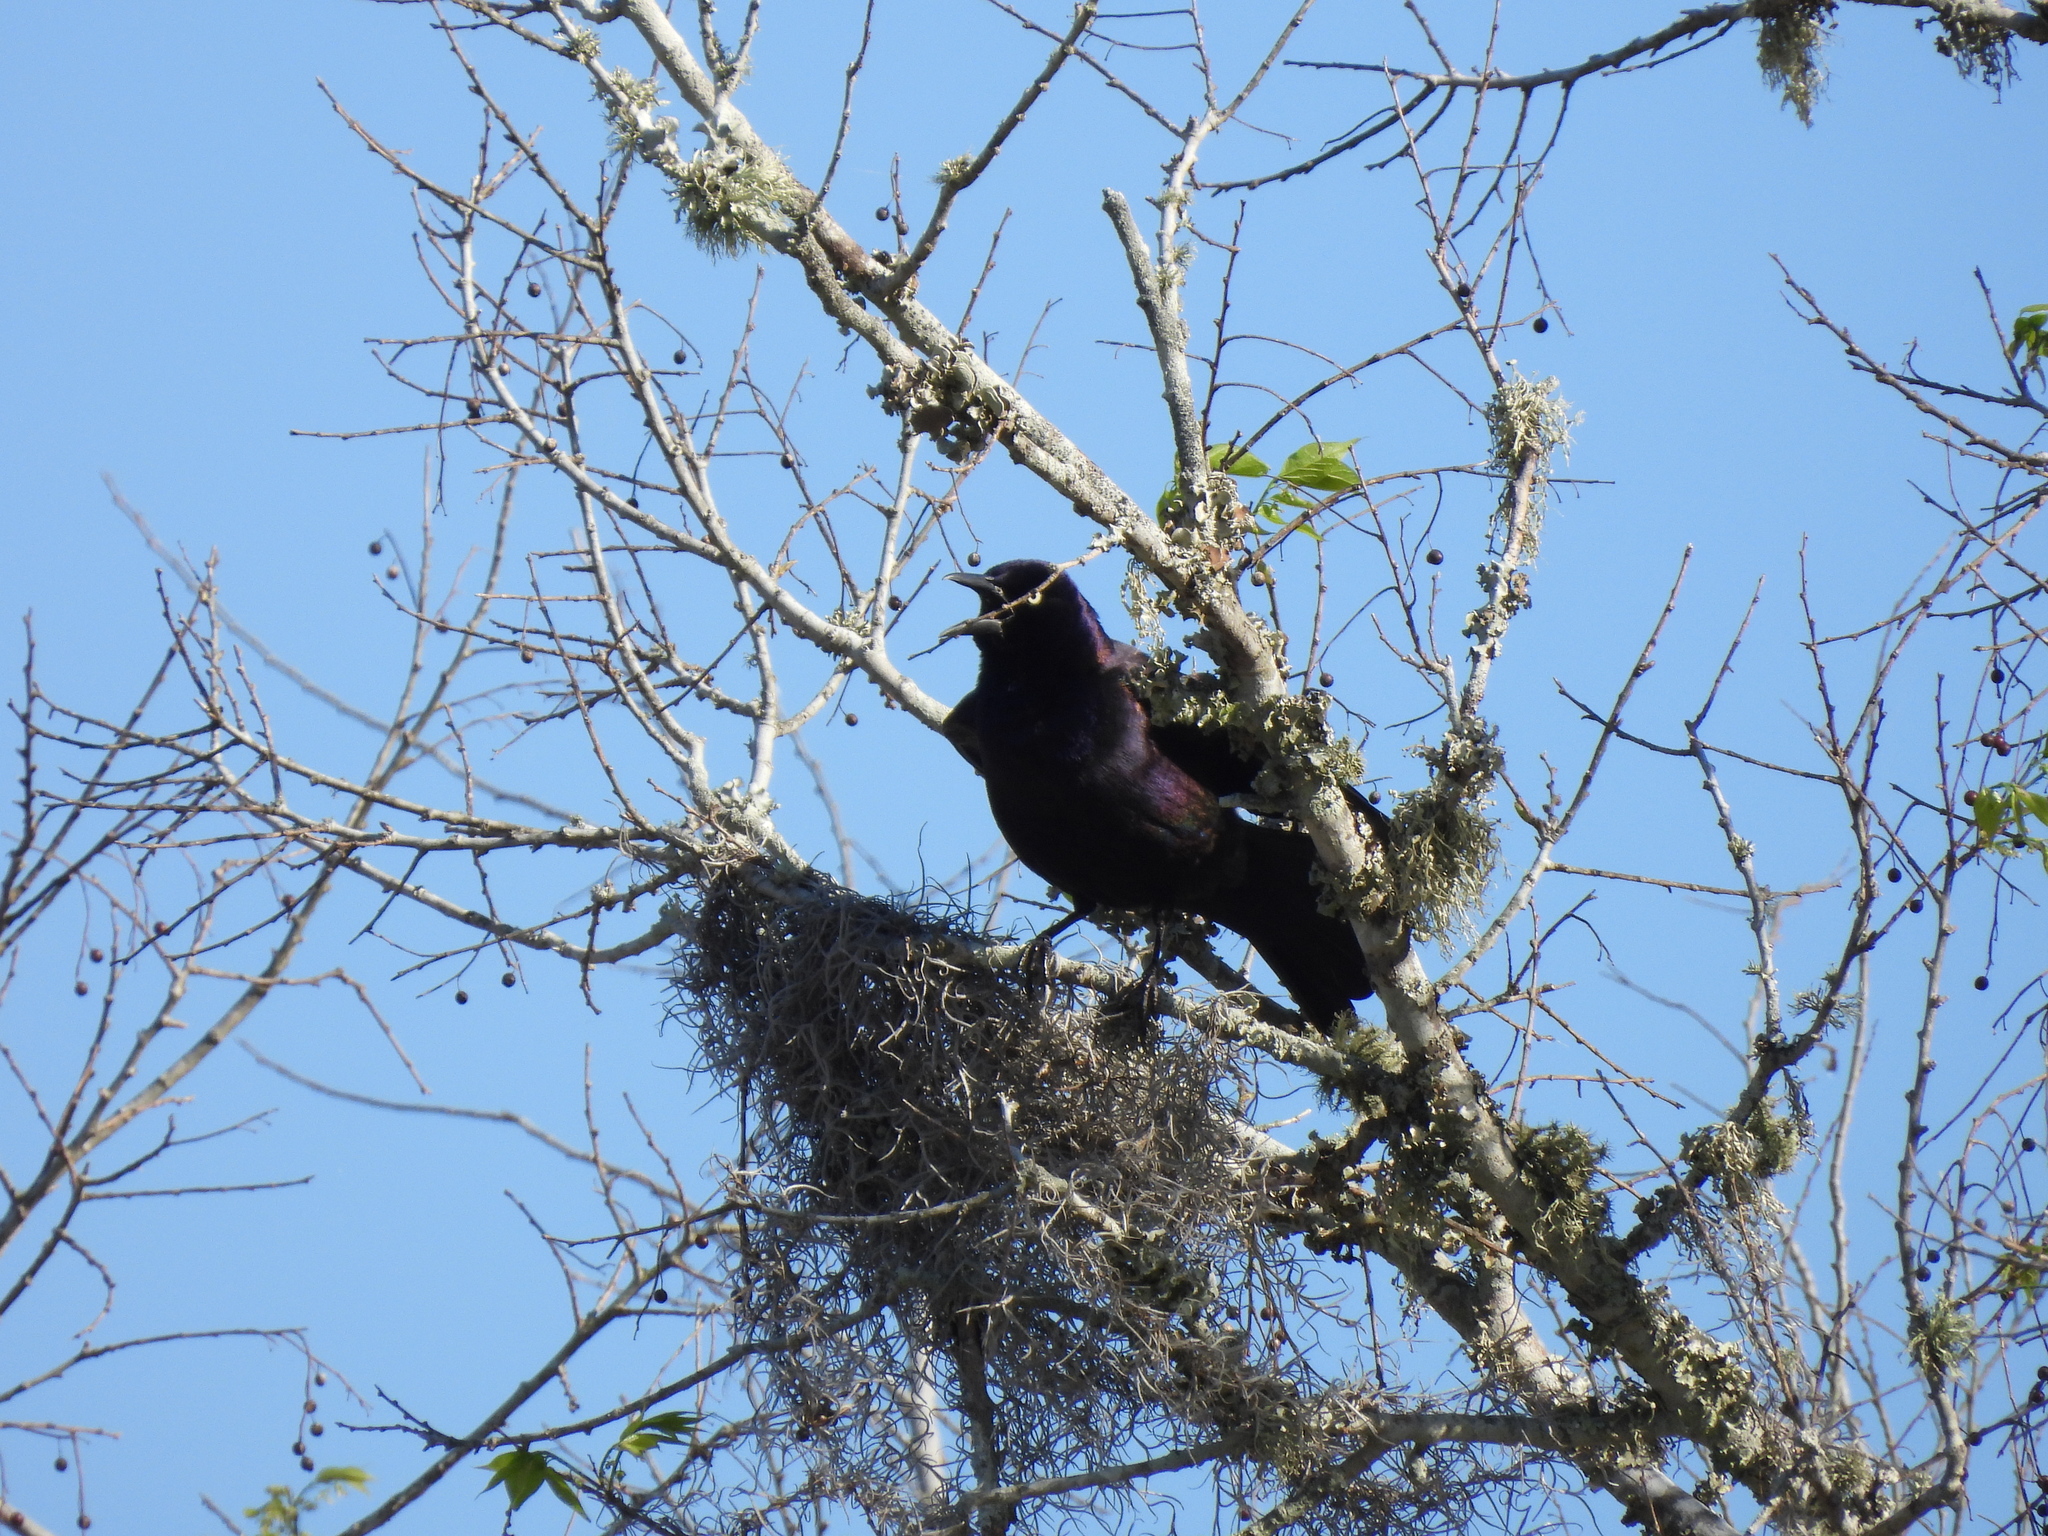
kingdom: Animalia
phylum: Chordata
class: Aves
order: Passeriformes
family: Icteridae
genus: Quiscalus
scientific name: Quiscalus quiscula
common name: Common grackle
